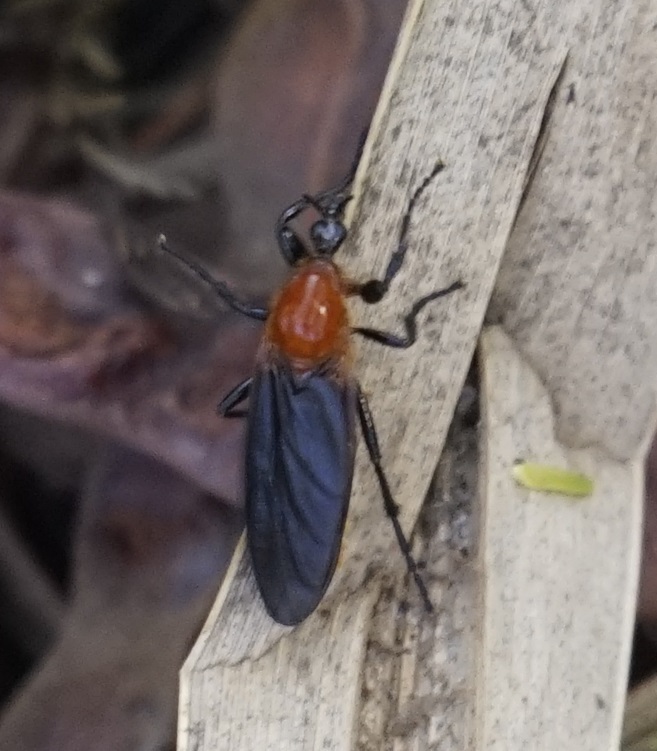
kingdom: Animalia
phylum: Arthropoda
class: Insecta
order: Diptera
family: Bibionidae
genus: Bibio
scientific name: Bibio imitator
